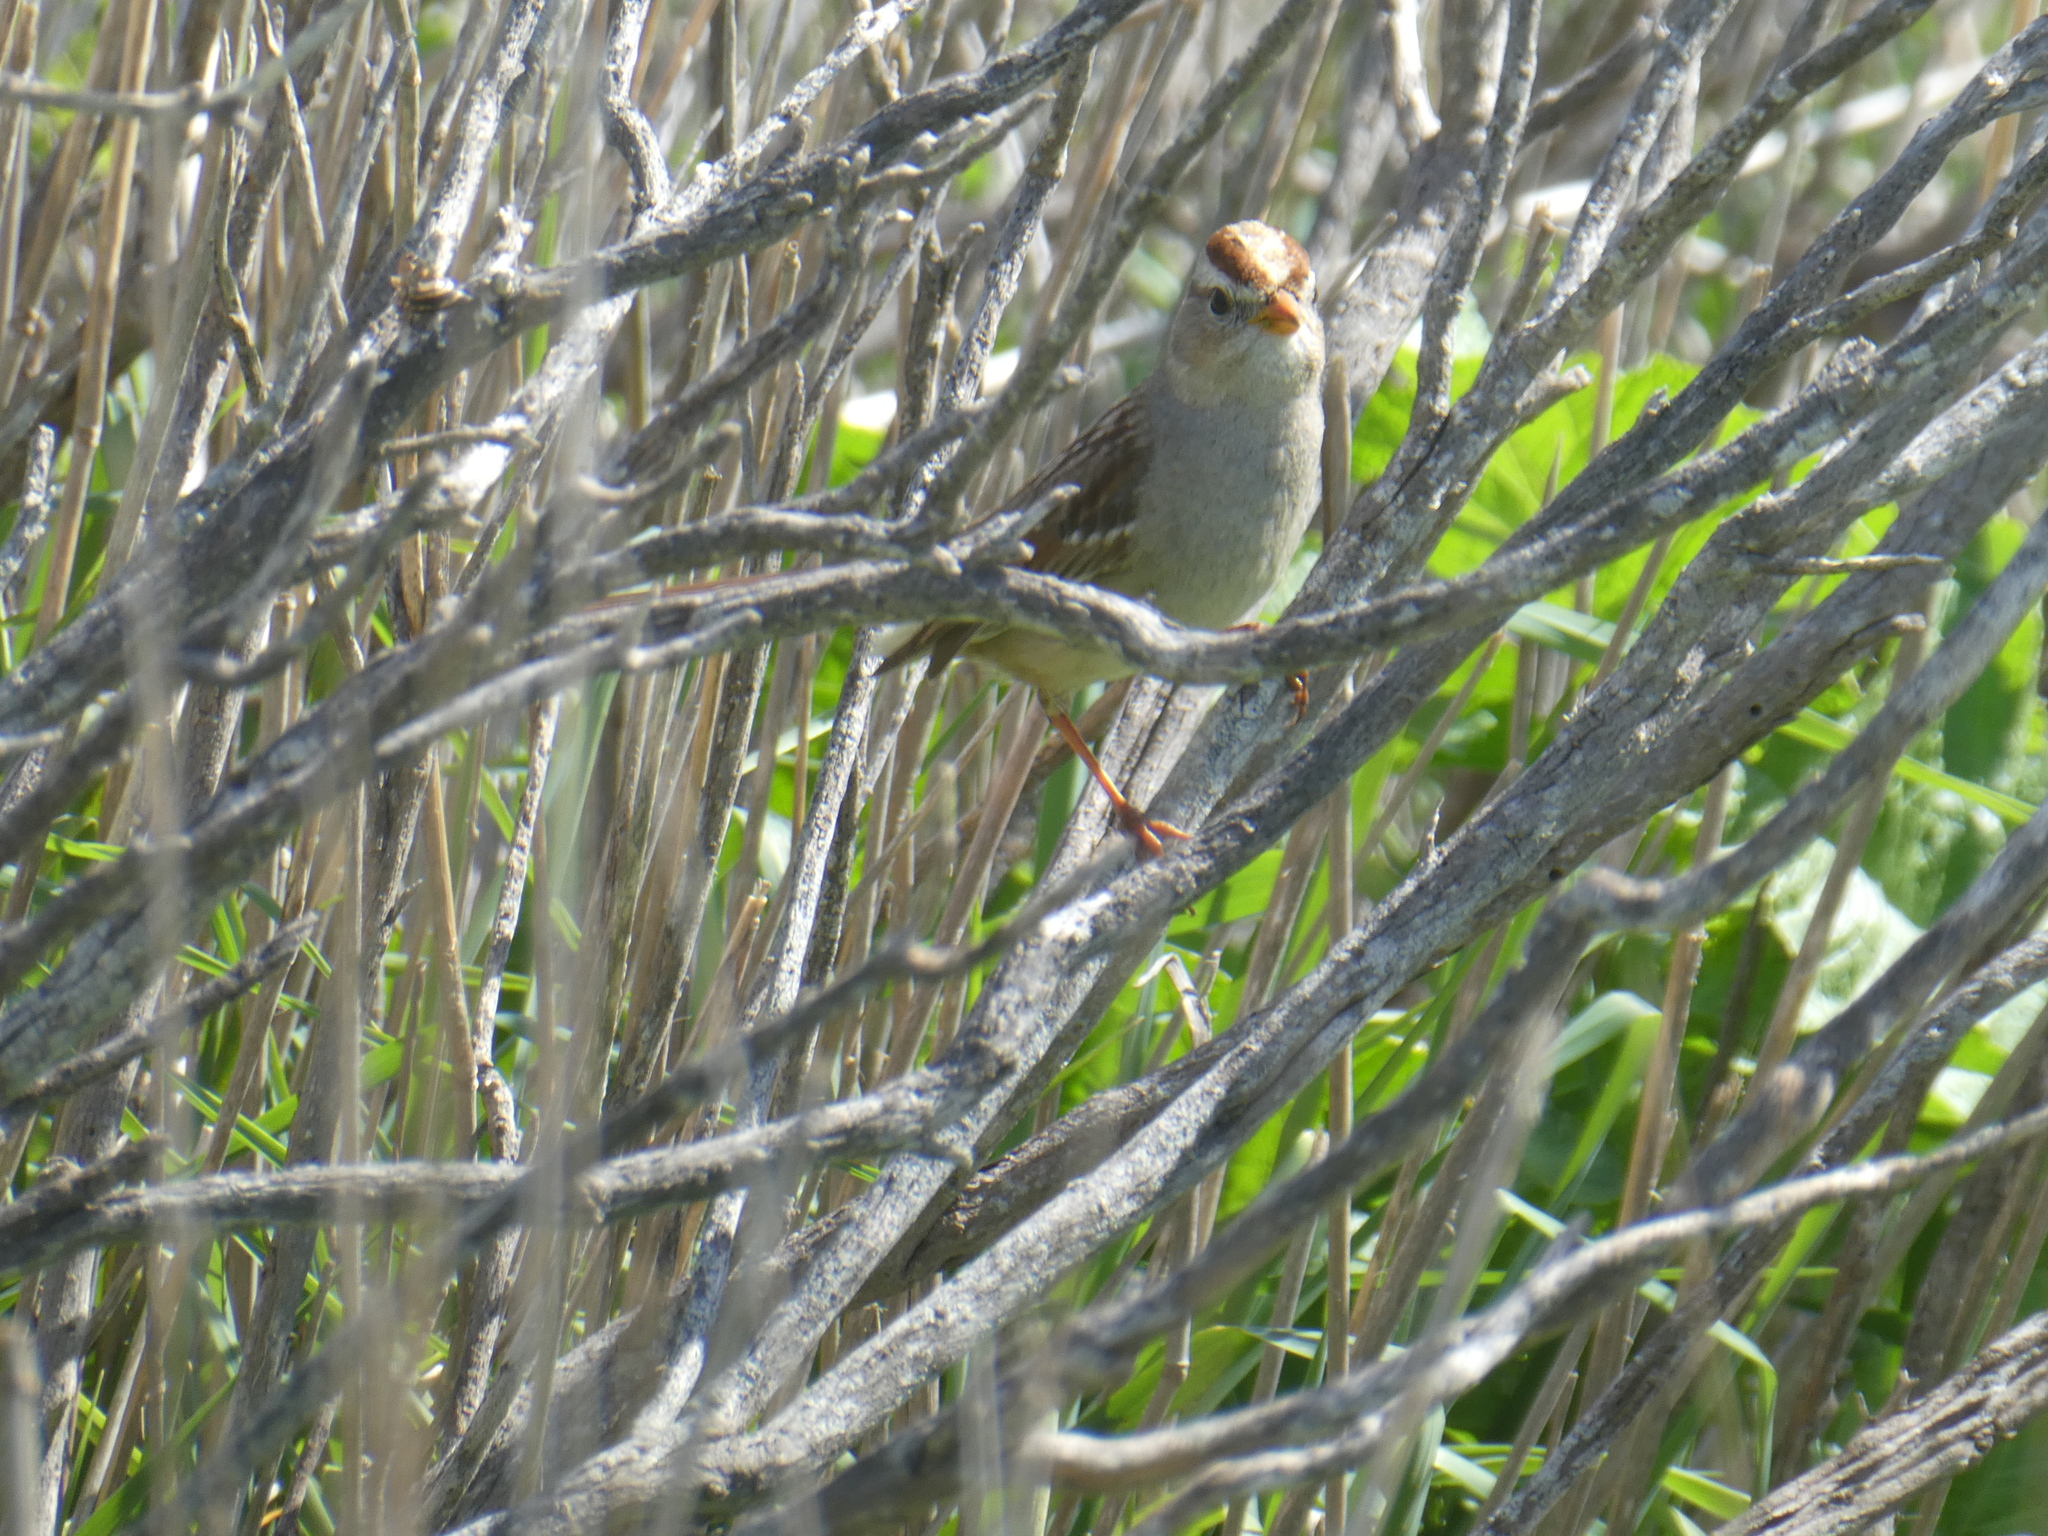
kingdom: Animalia
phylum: Chordata
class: Aves
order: Passeriformes
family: Passerellidae
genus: Zonotrichia
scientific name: Zonotrichia leucophrys
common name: White-crowned sparrow
